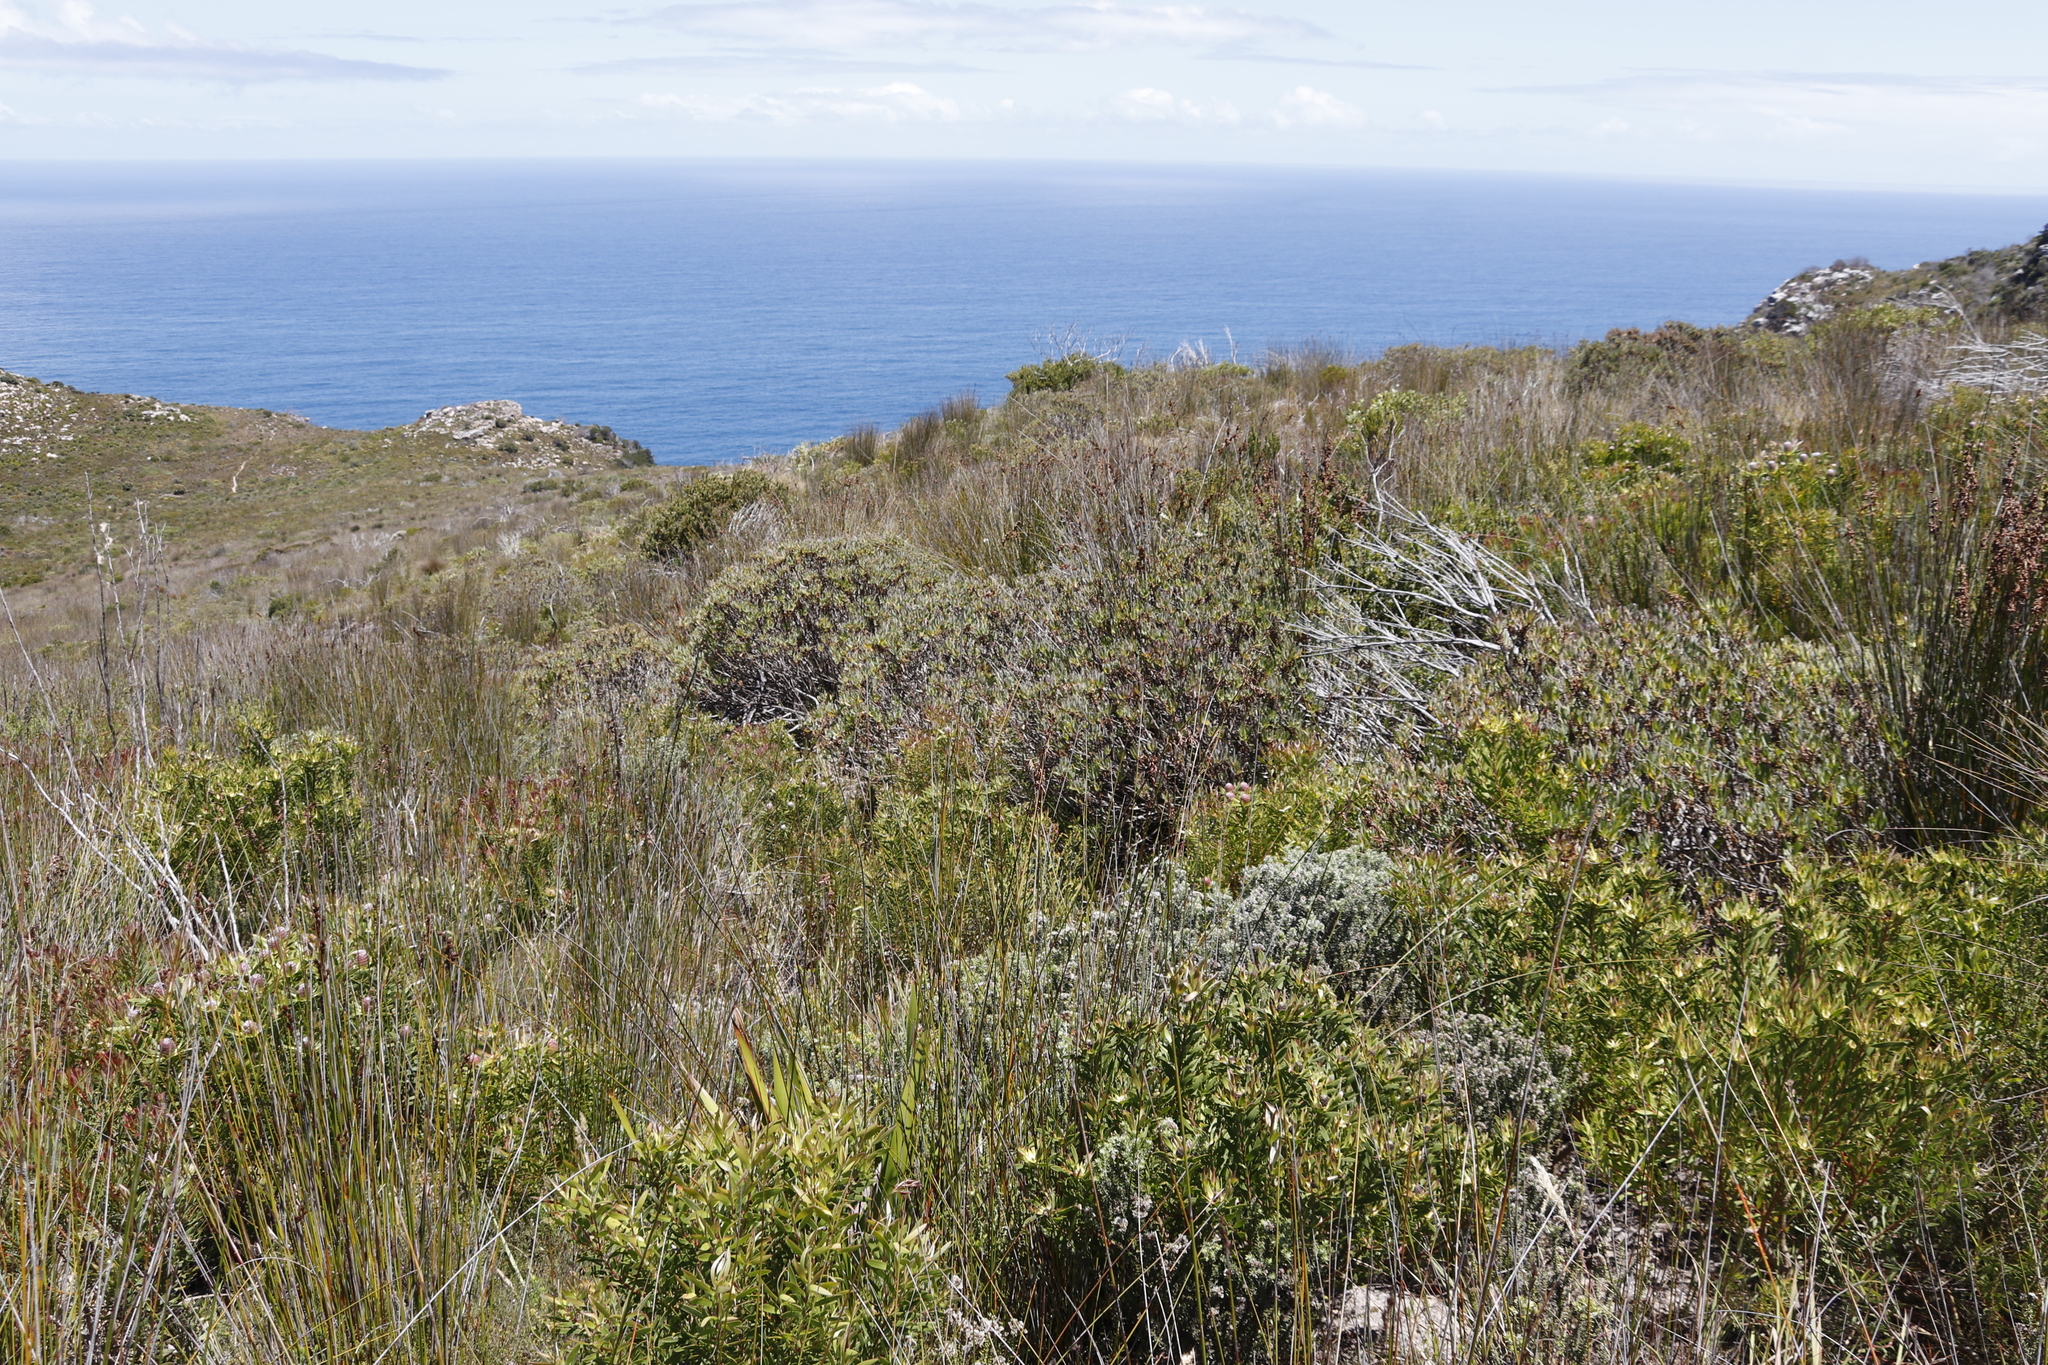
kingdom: Plantae
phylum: Tracheophyta
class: Magnoliopsida
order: Proteales
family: Proteaceae
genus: Protea
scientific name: Protea scolymocephala
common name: Thistle sugarbush
